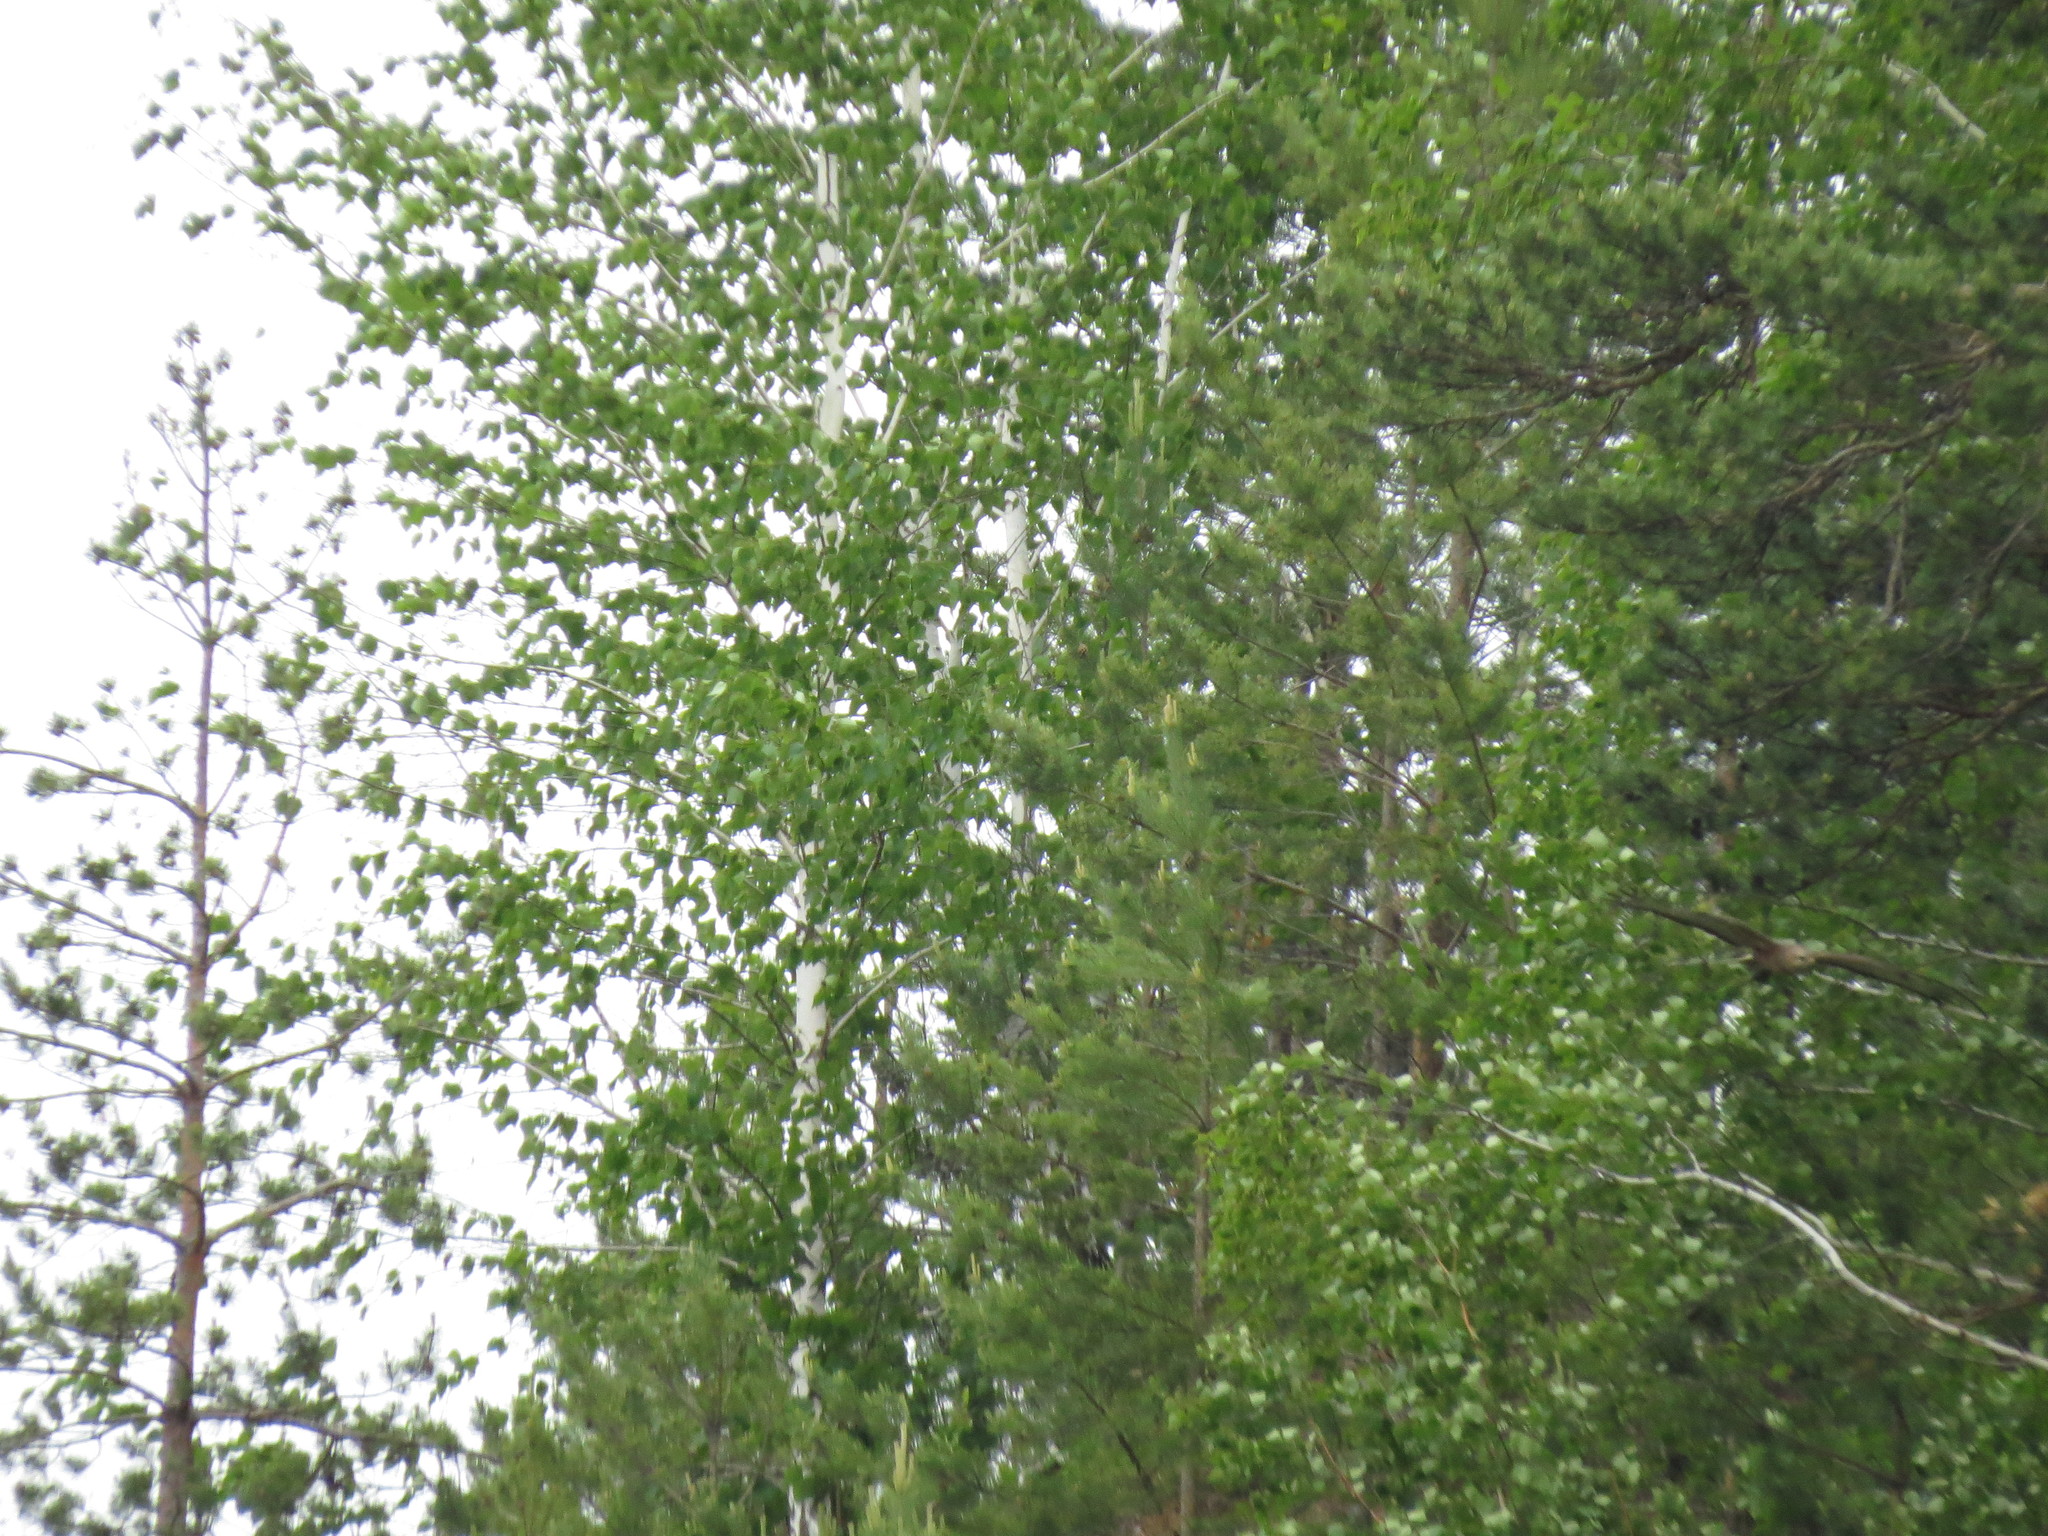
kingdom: Animalia
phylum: Chordata
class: Aves
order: Accipitriformes
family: Accipitridae
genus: Buteo
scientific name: Buteo buteo
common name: Common buzzard
